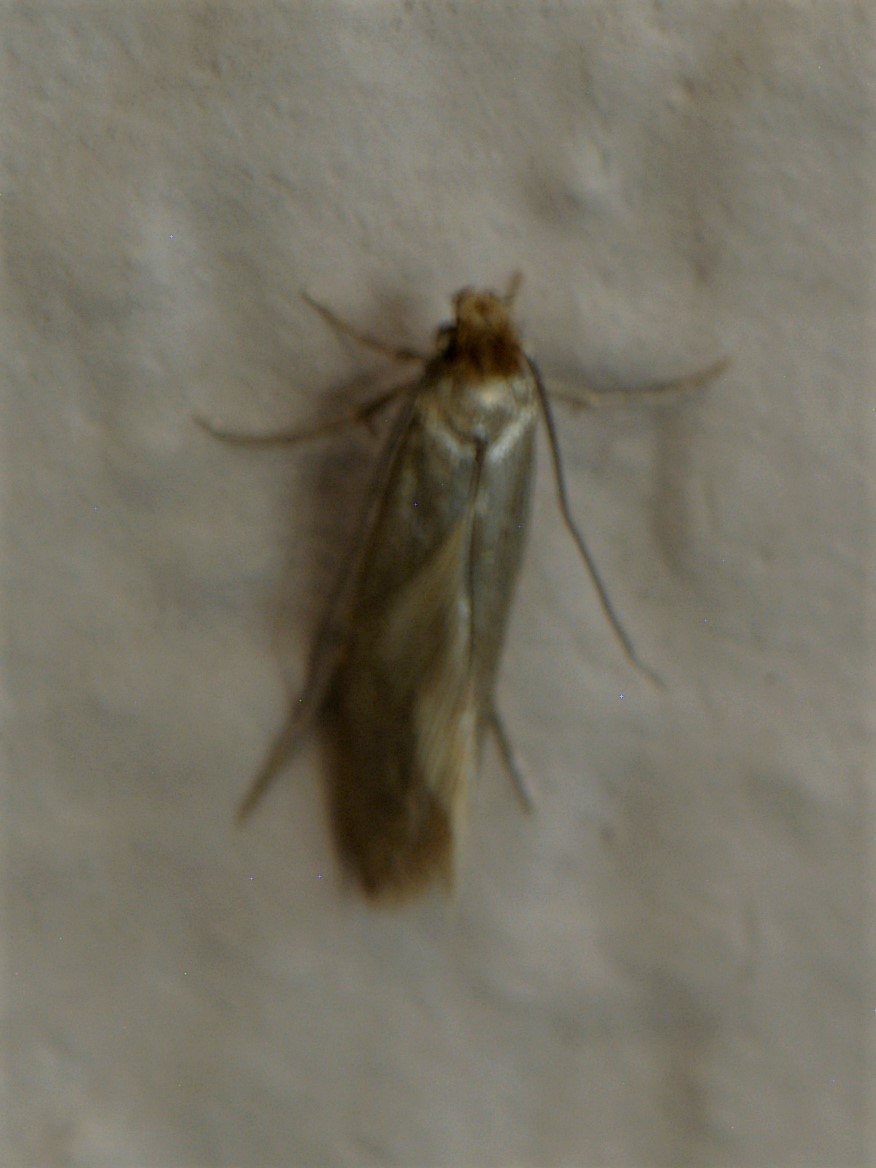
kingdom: Animalia
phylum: Arthropoda
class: Insecta
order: Lepidoptera
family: Tineidae
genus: Tineola
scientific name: Tineola bisselliella
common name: Webbing clothes moth
